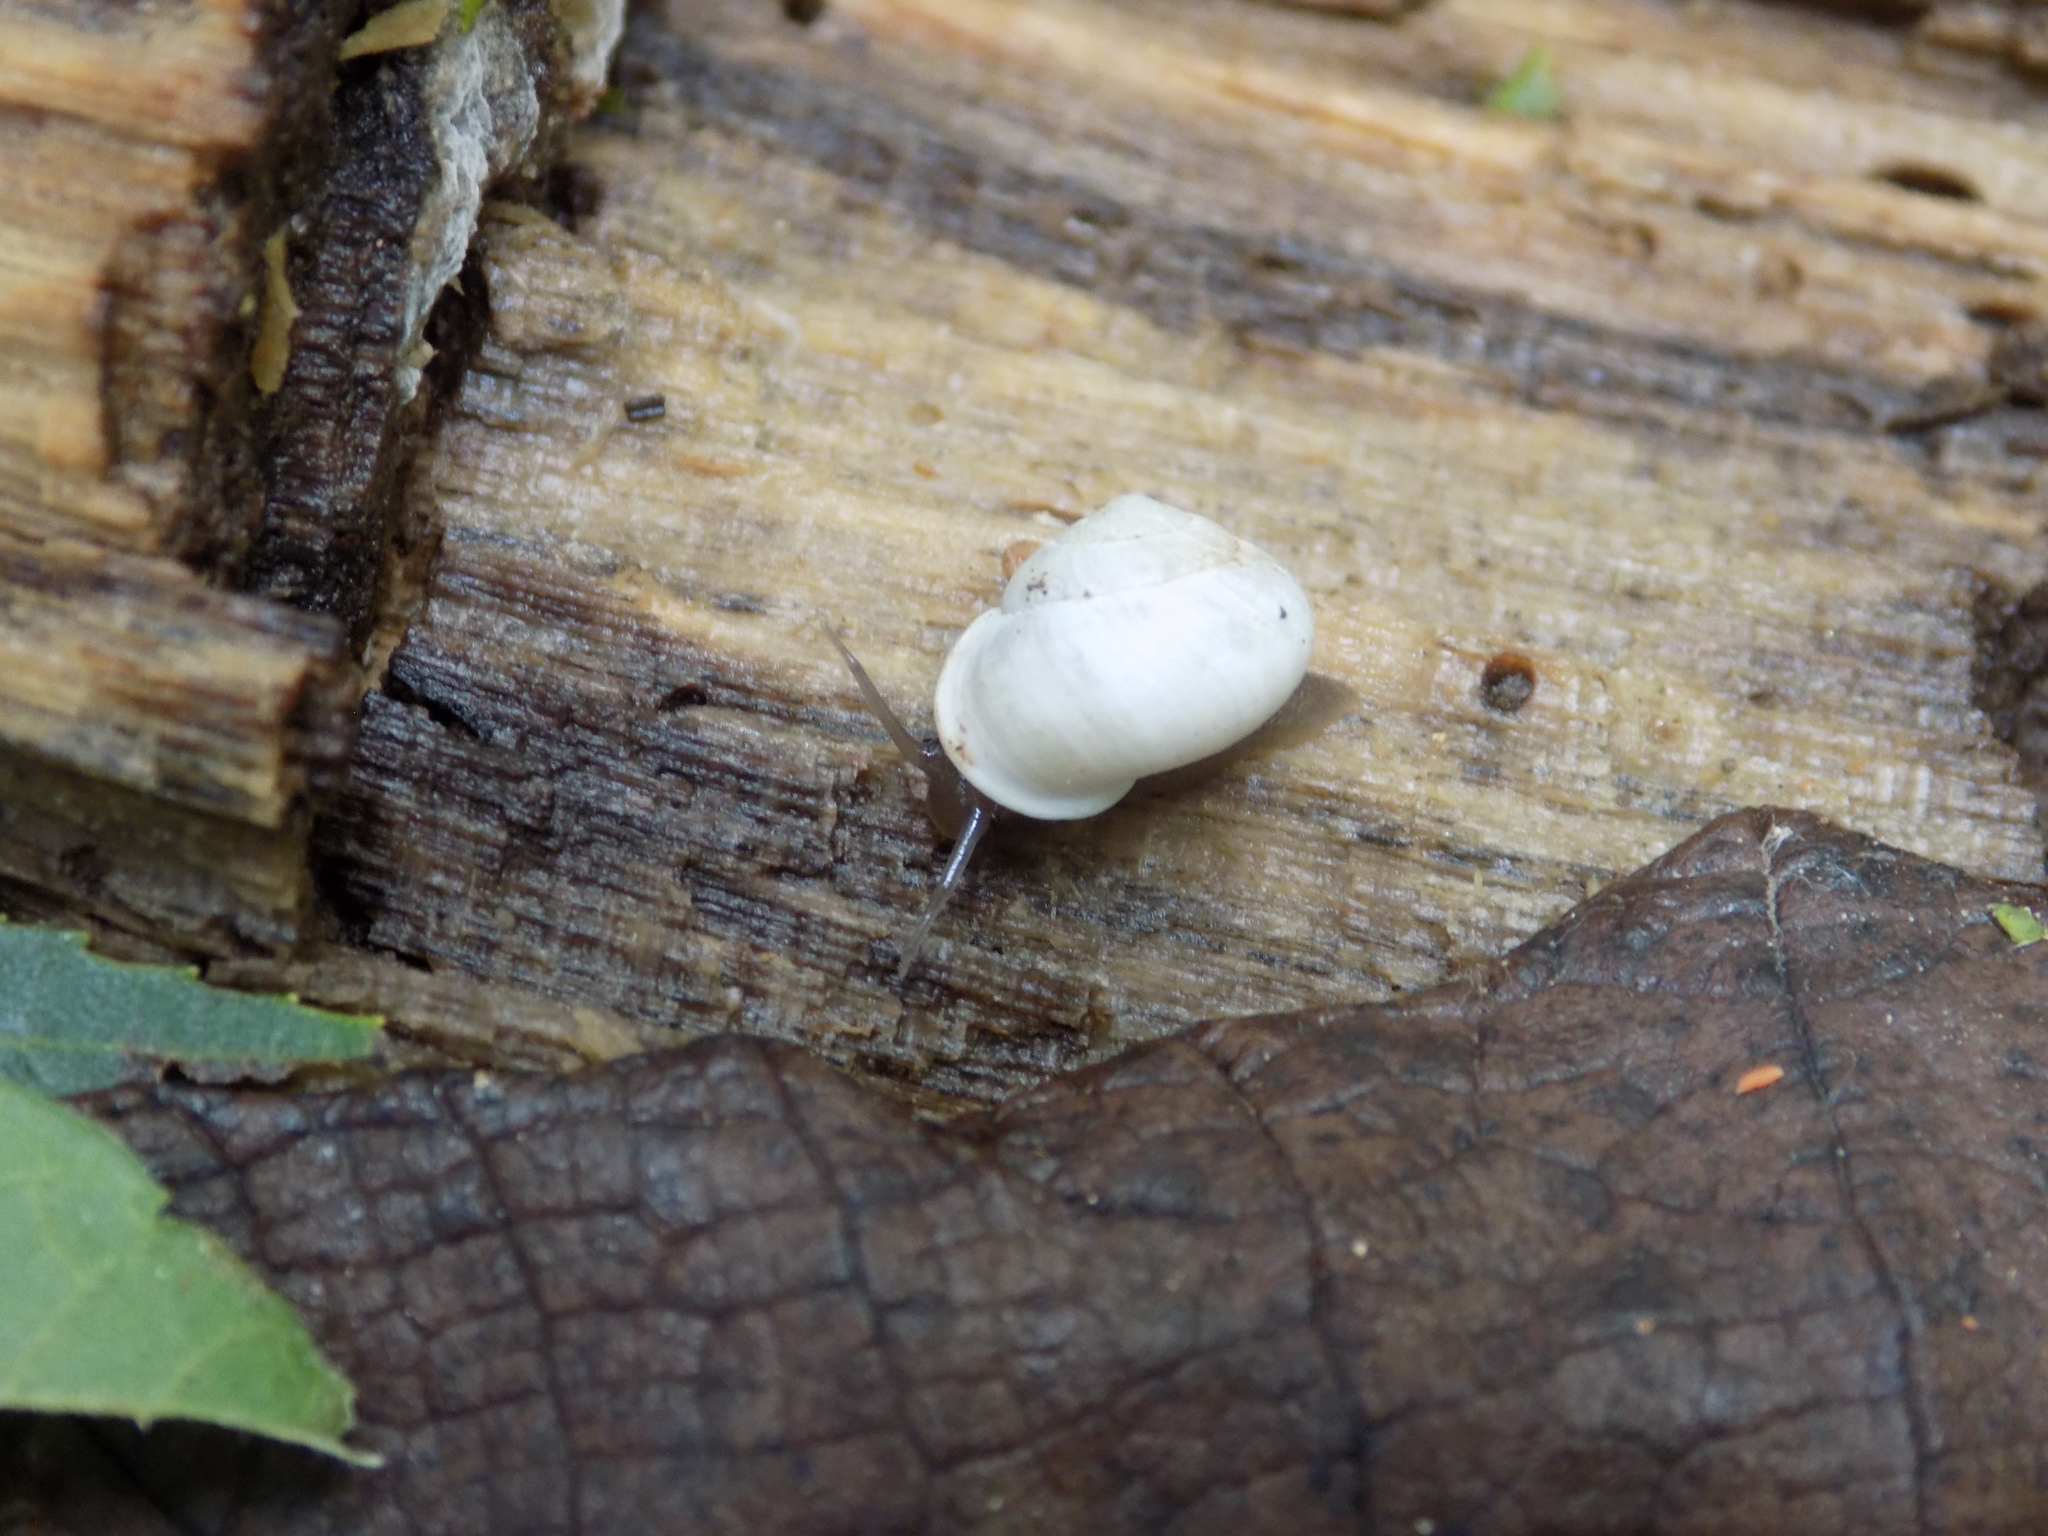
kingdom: Animalia
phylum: Mollusca
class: Gastropoda
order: Cycloneritida
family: Helicinidae
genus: Helicina
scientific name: Helicina orbiculata
